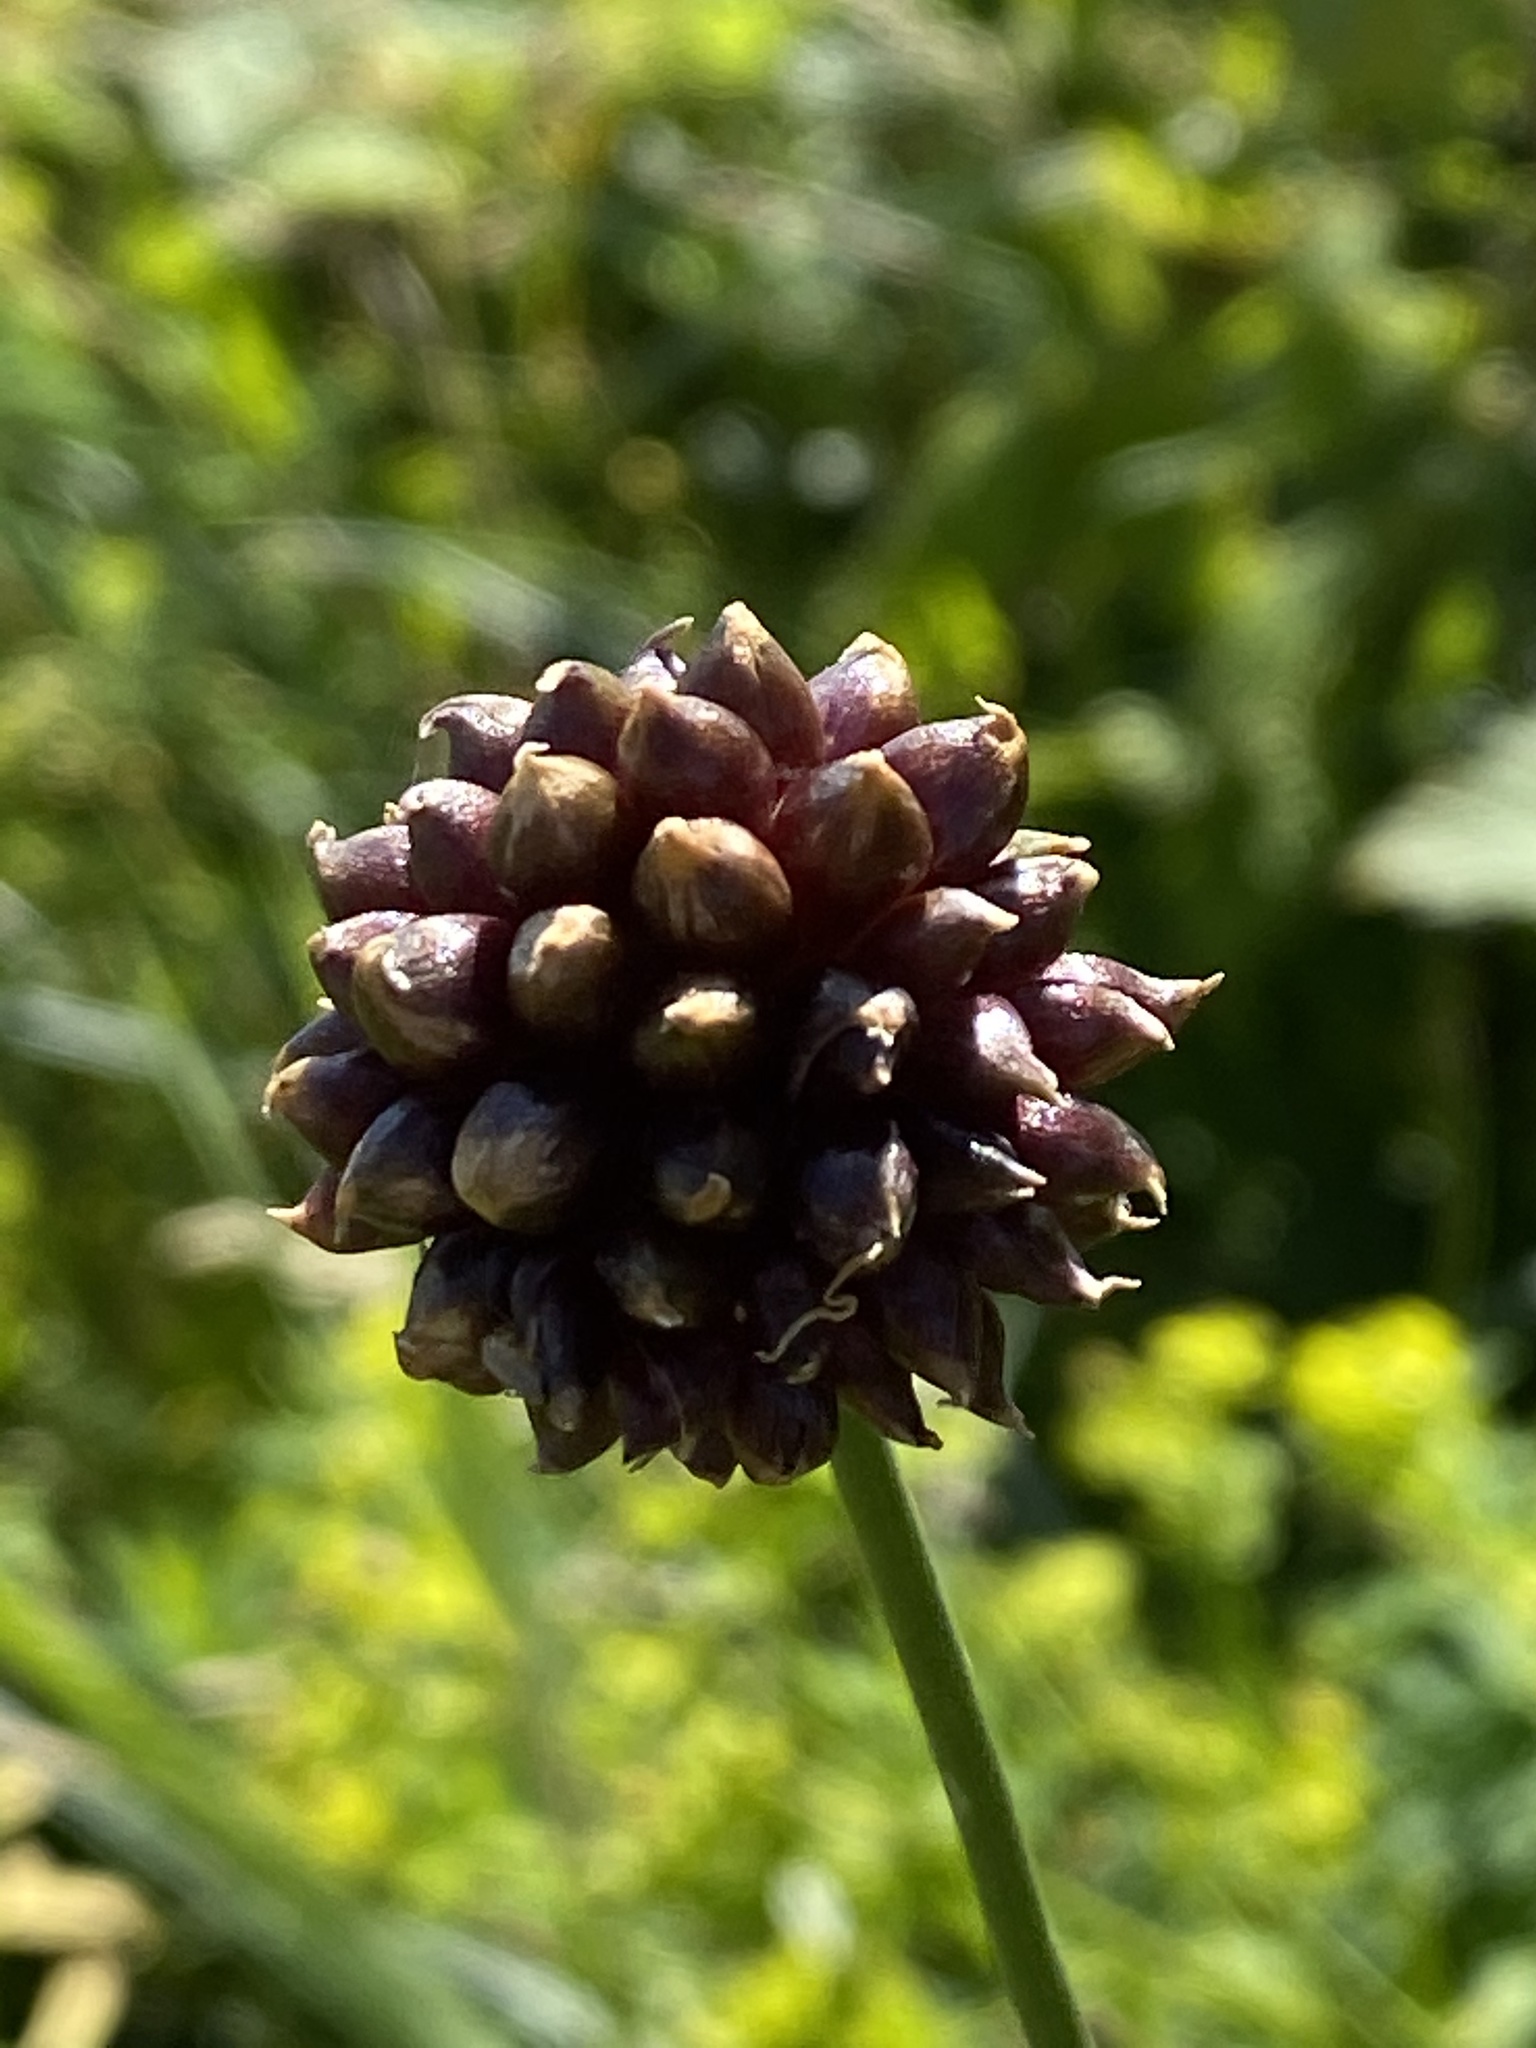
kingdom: Plantae
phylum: Tracheophyta
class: Liliopsida
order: Asparagales
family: Amaryllidaceae
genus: Allium
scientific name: Allium vineale
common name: Crow garlic
